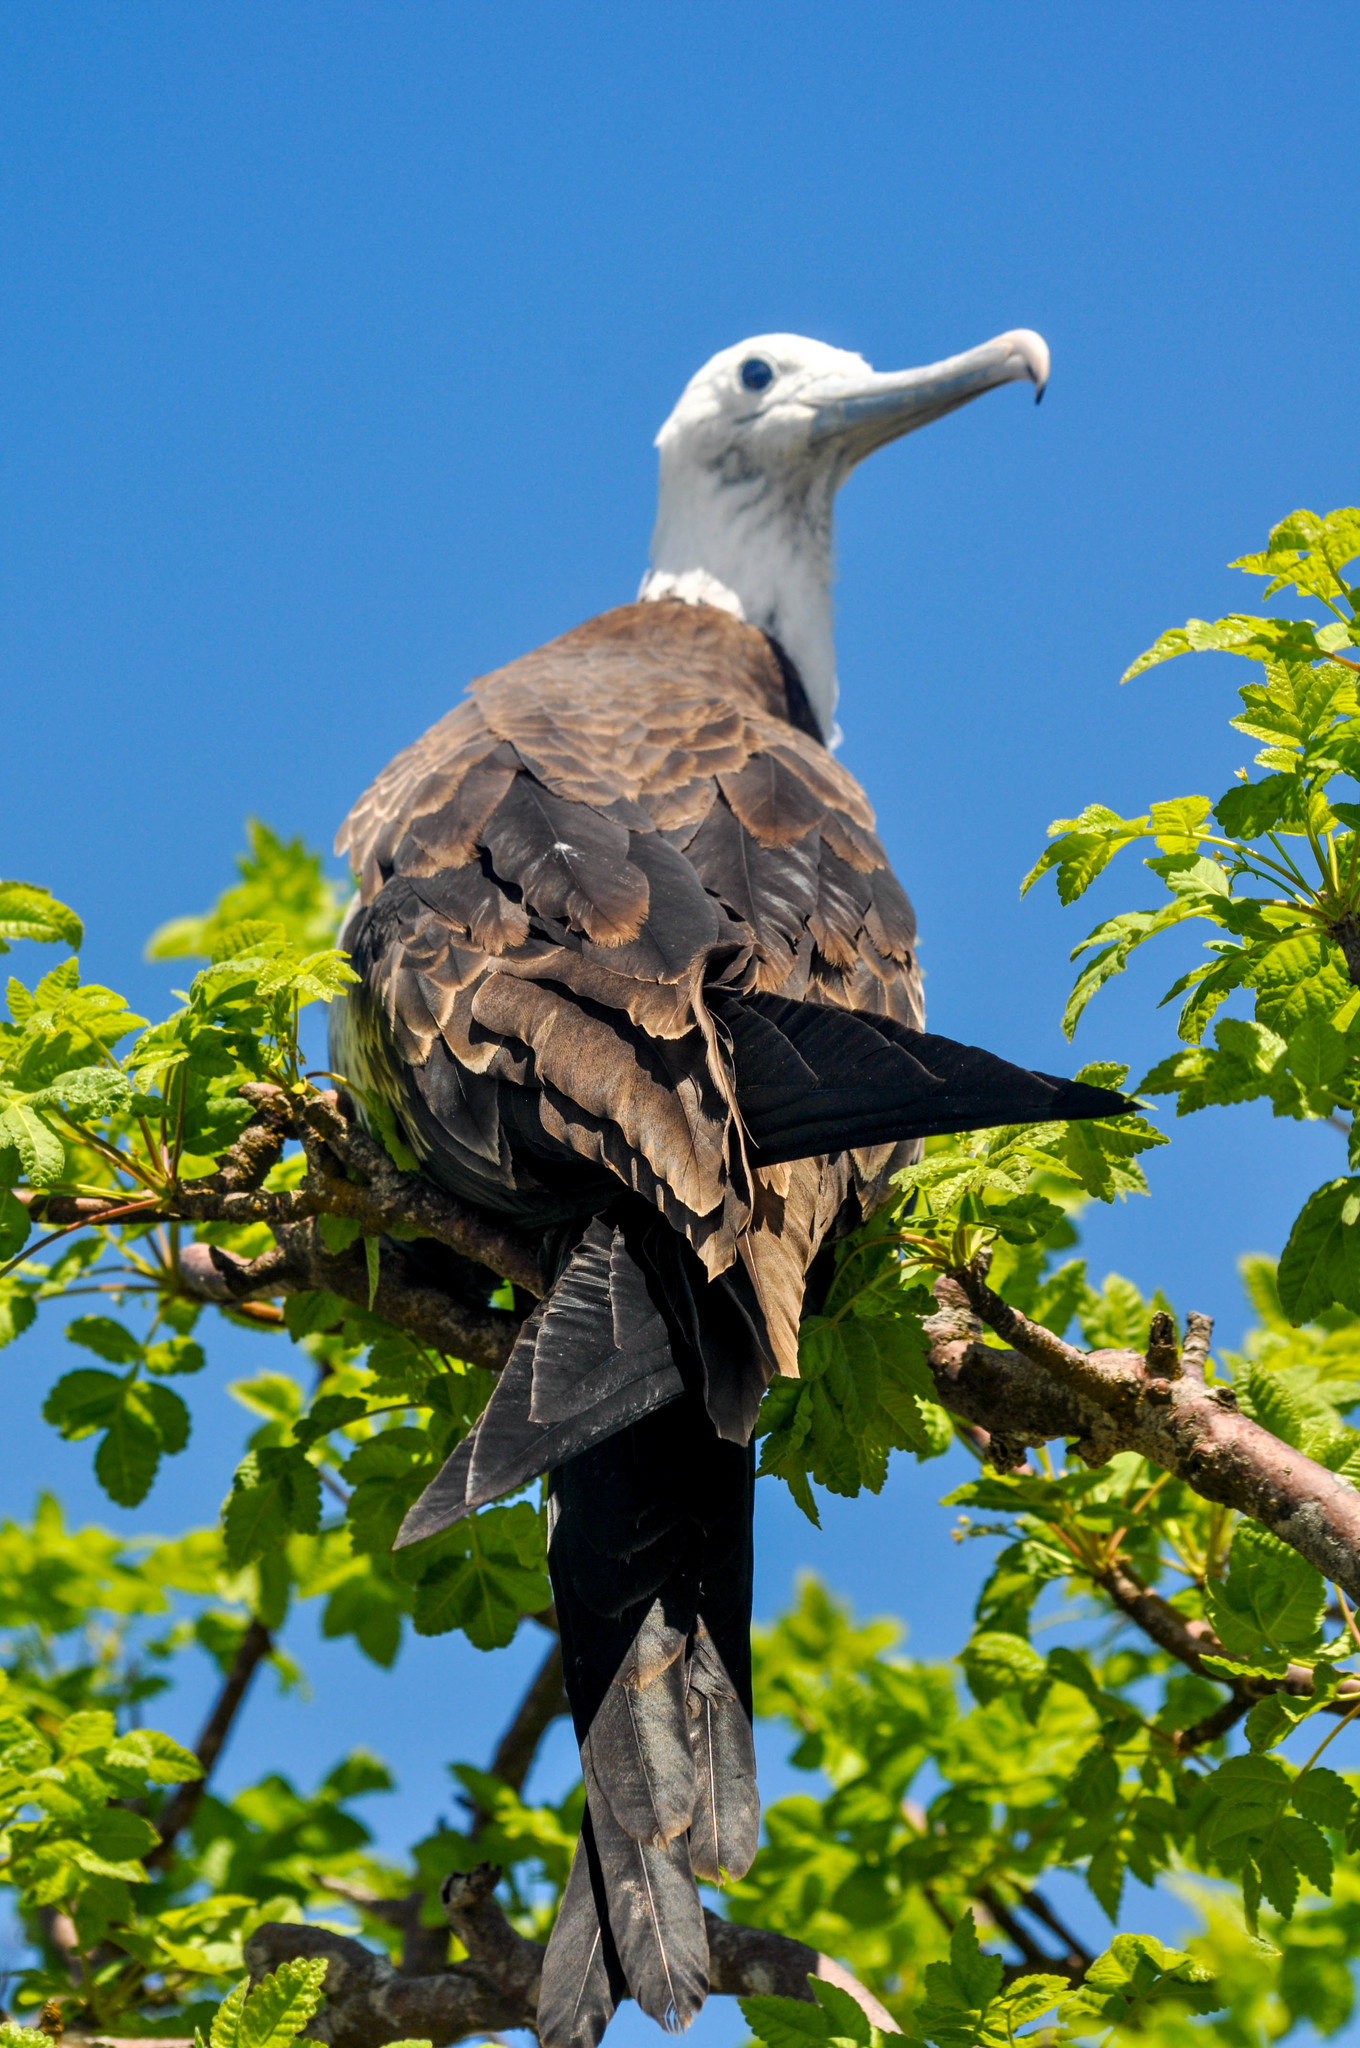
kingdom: Animalia
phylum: Chordata
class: Aves
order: Suliformes
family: Fregatidae
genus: Fregata
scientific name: Fregata magnificens
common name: Magnificent frigatebird
